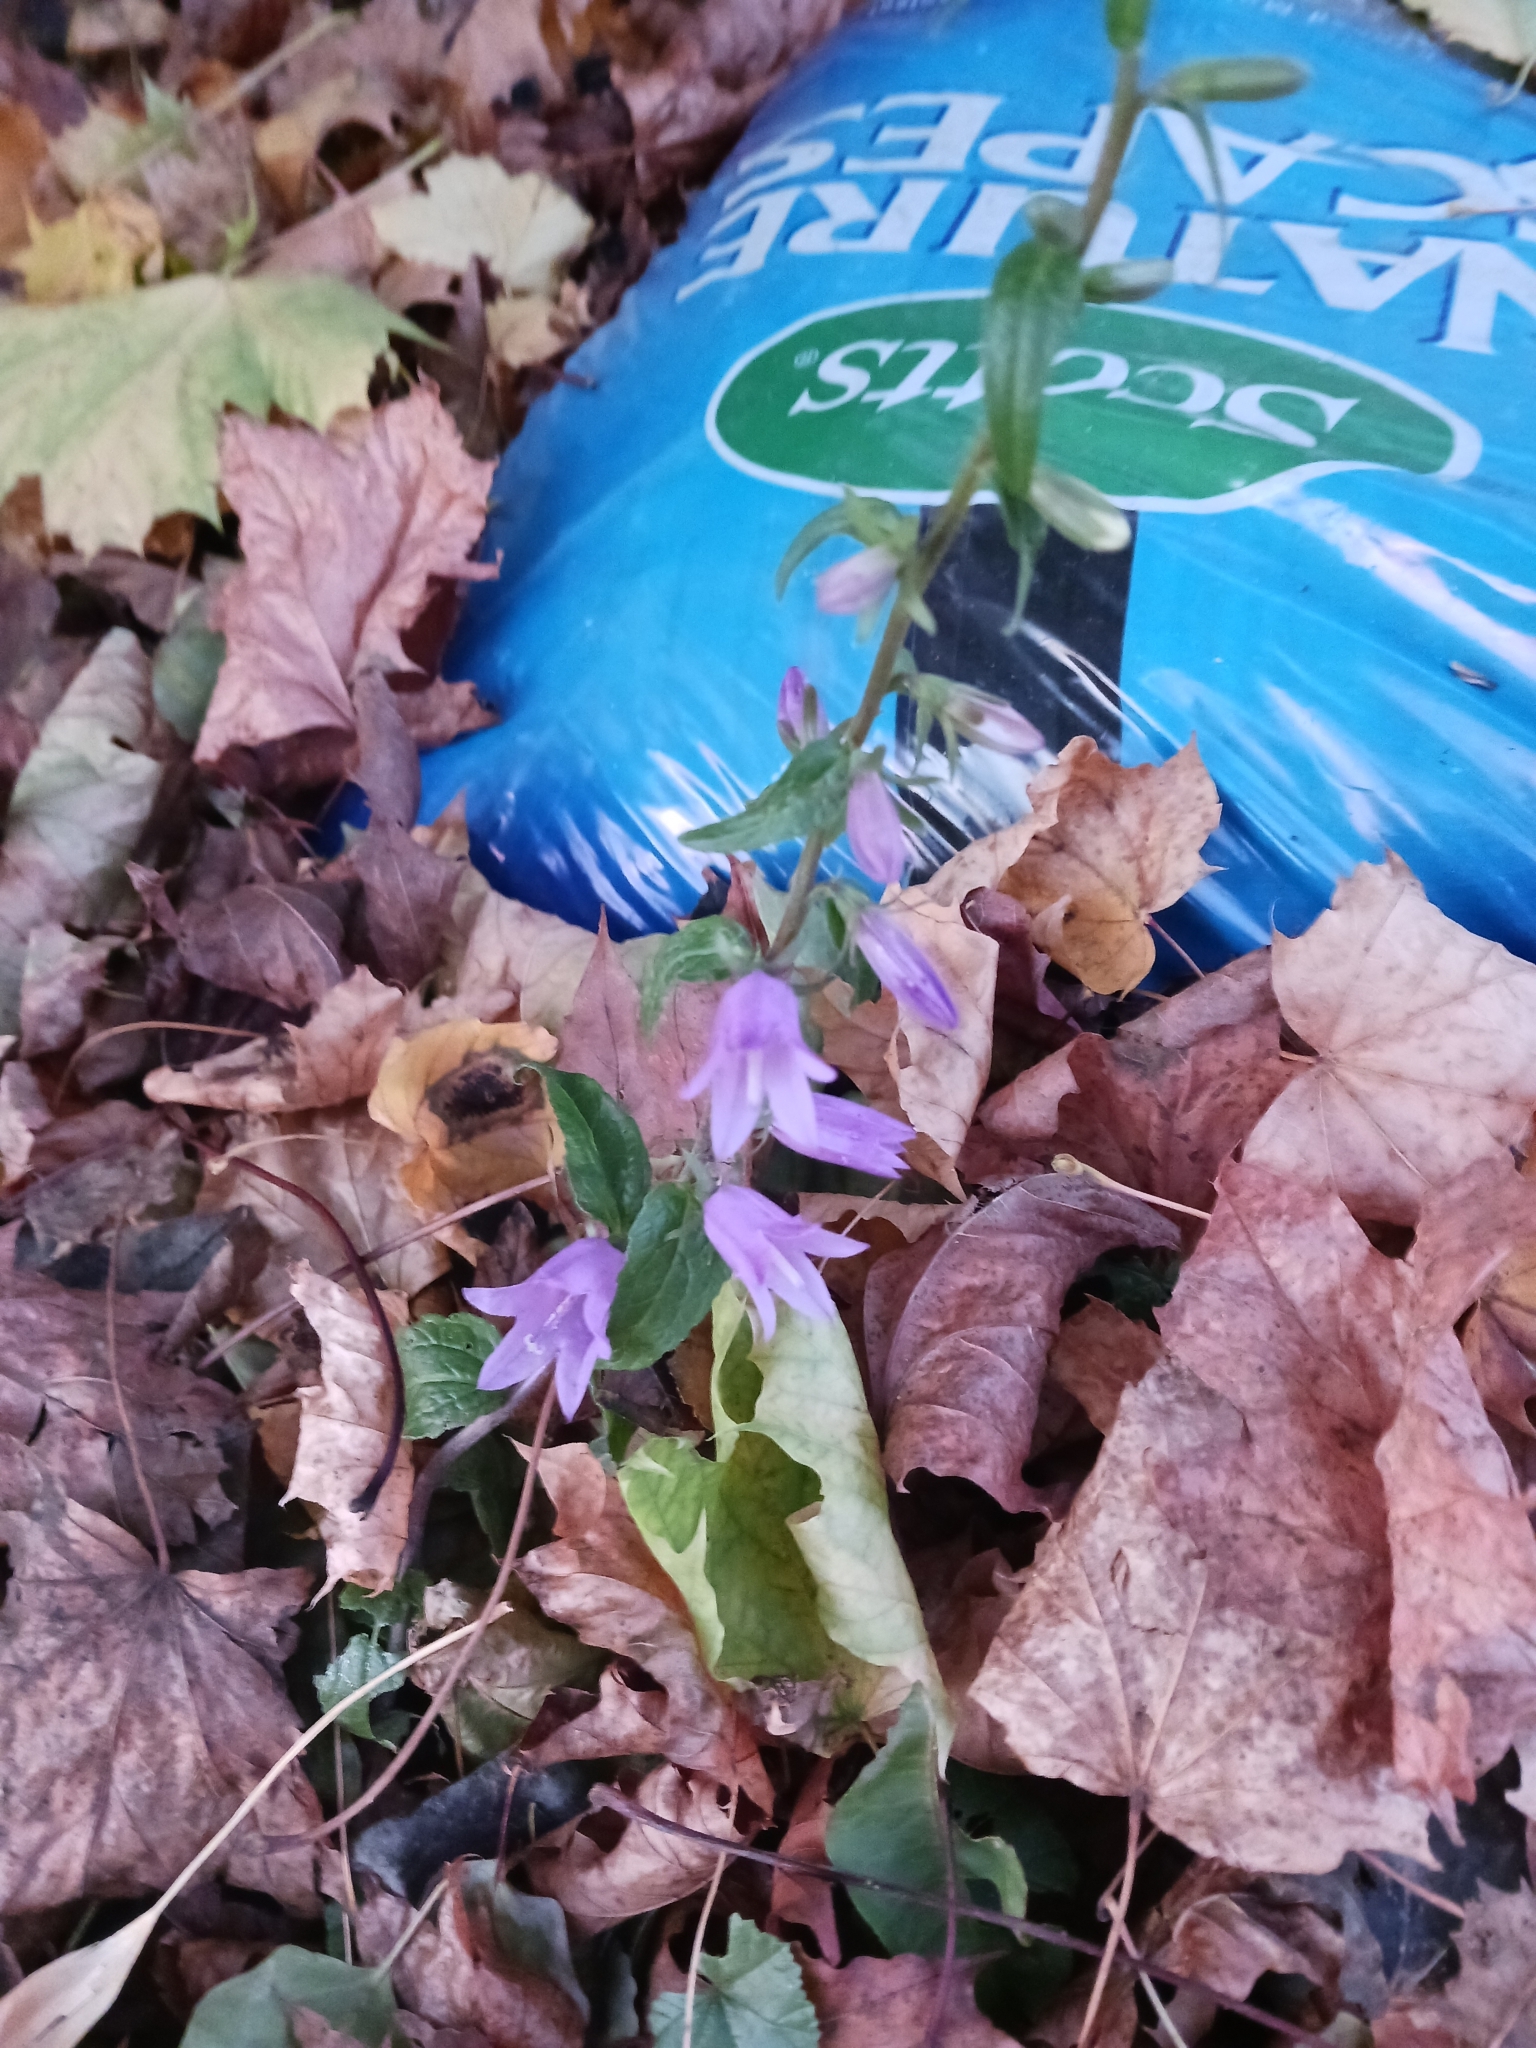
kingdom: Plantae
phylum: Tracheophyta
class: Magnoliopsida
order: Asterales
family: Campanulaceae
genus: Campanula
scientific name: Campanula rapunculoides
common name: Creeping bellflower
